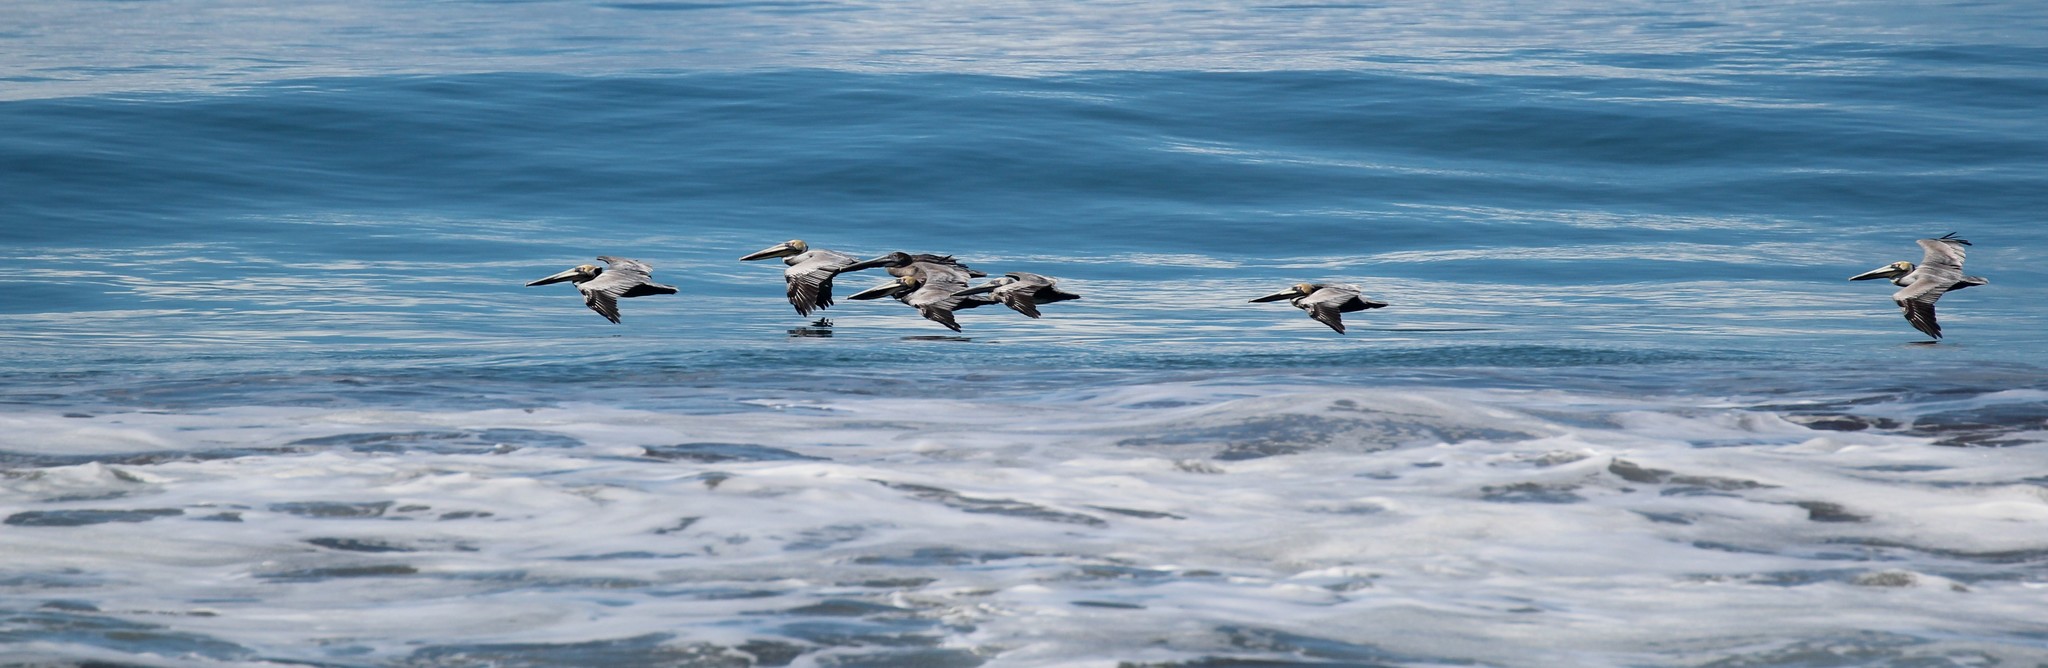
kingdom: Animalia
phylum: Chordata
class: Aves
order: Pelecaniformes
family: Pelecanidae
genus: Pelecanus
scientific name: Pelecanus occidentalis
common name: Brown pelican
